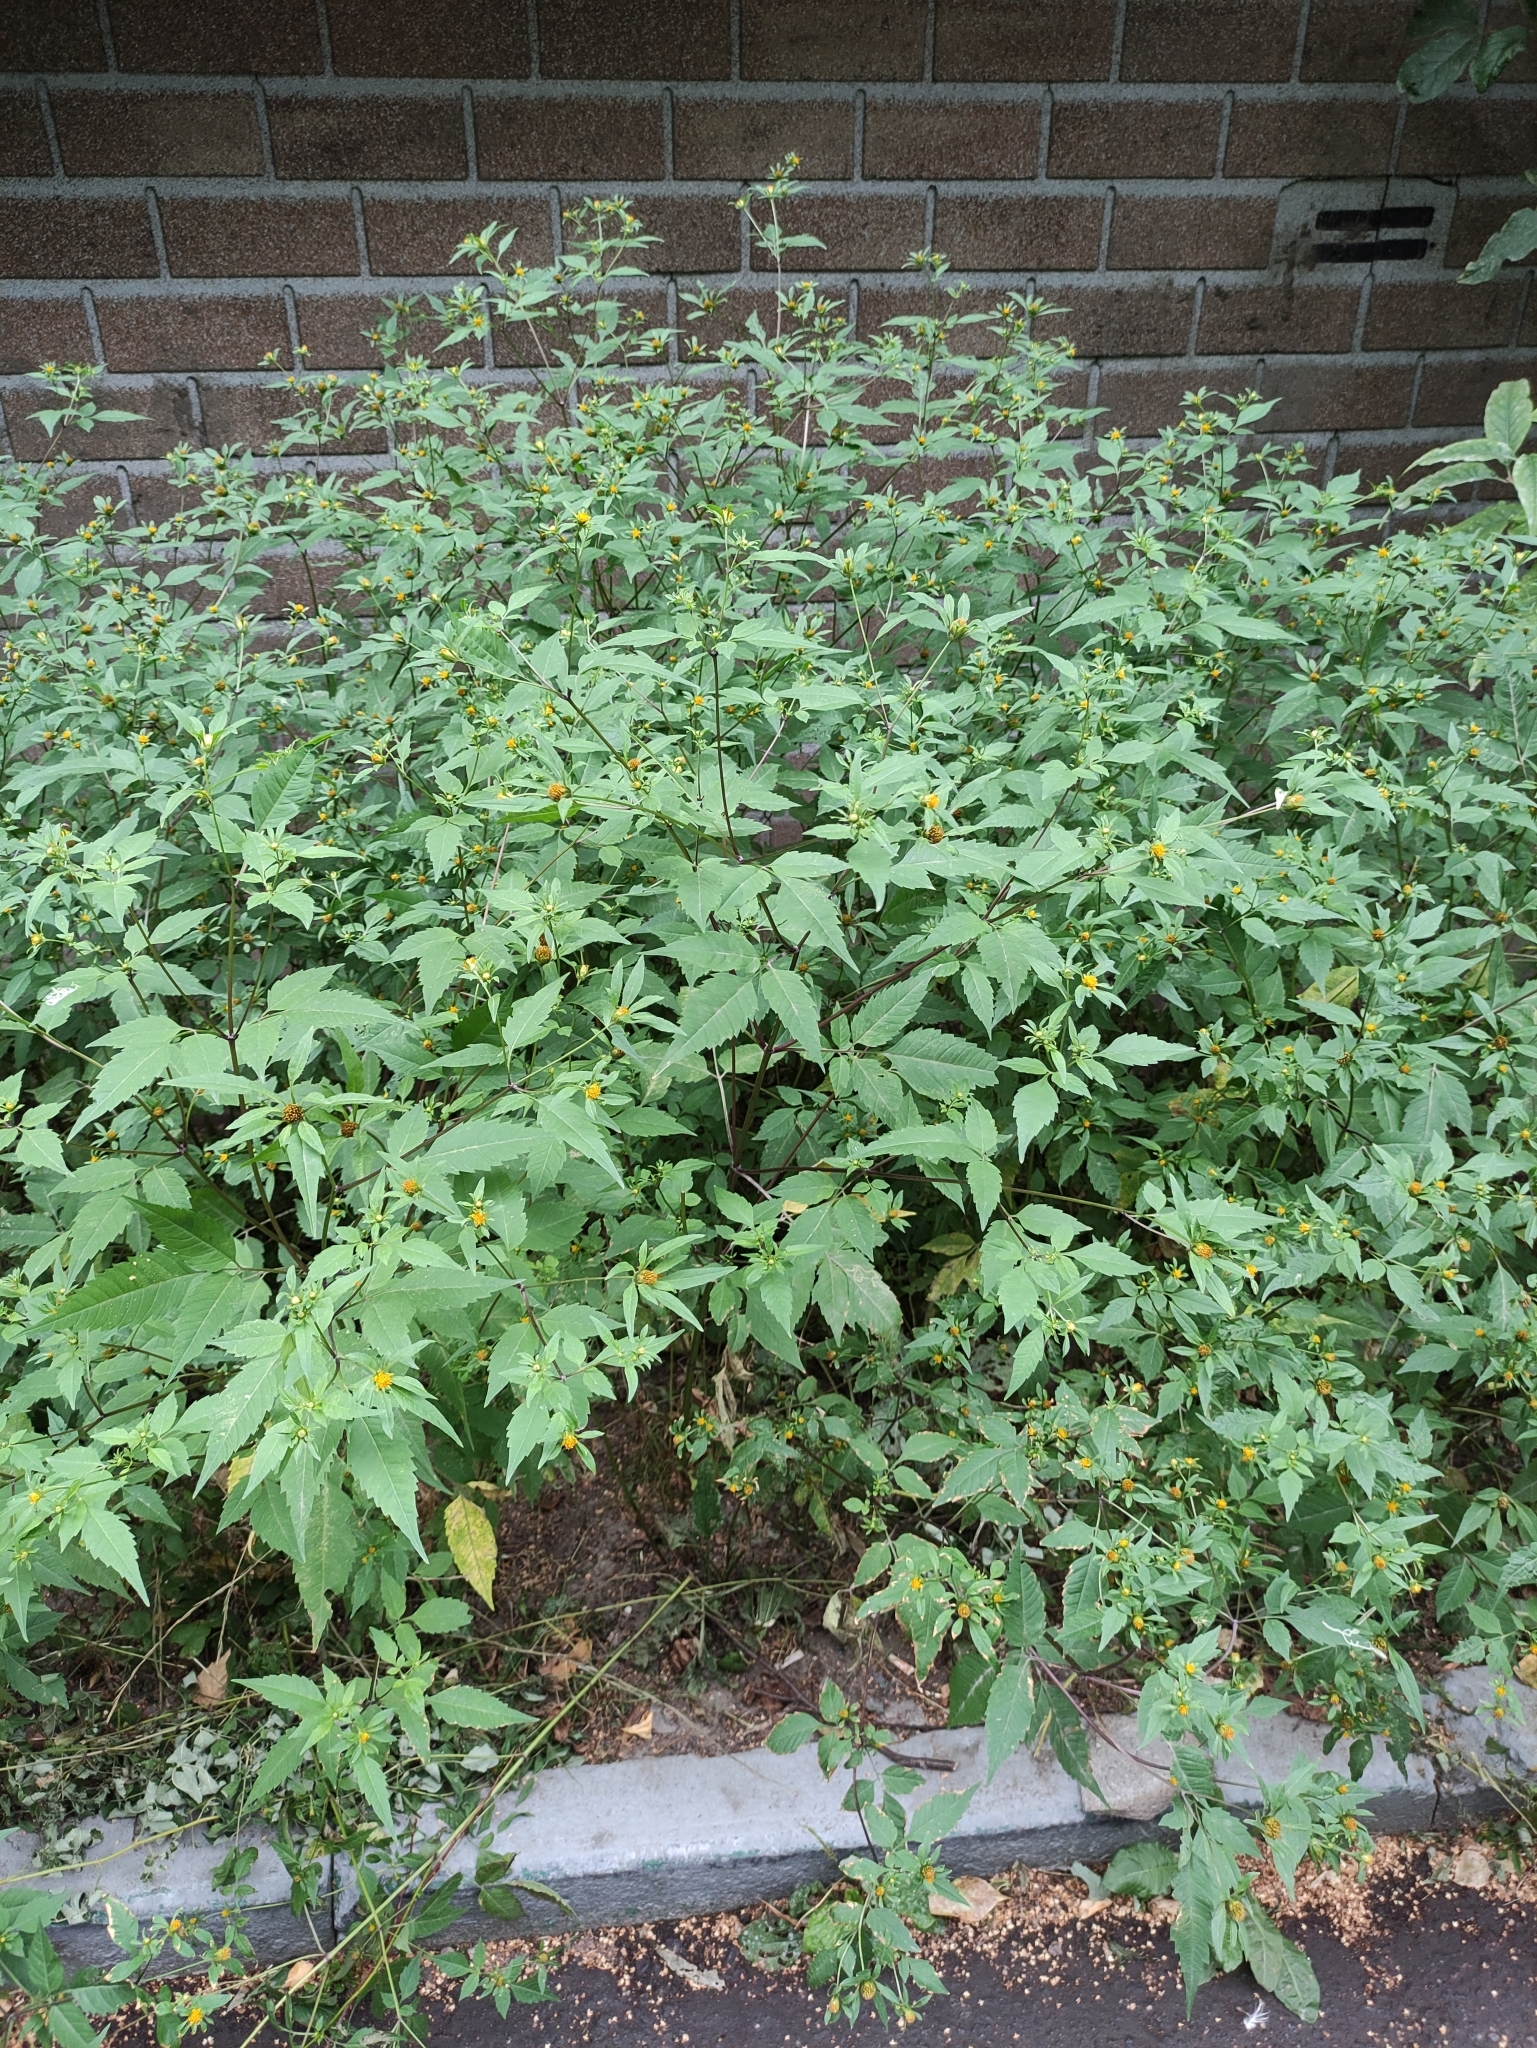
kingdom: Plantae
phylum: Tracheophyta
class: Magnoliopsida
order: Asterales
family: Asteraceae
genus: Bidens
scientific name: Bidens frondosa
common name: Beggarticks
